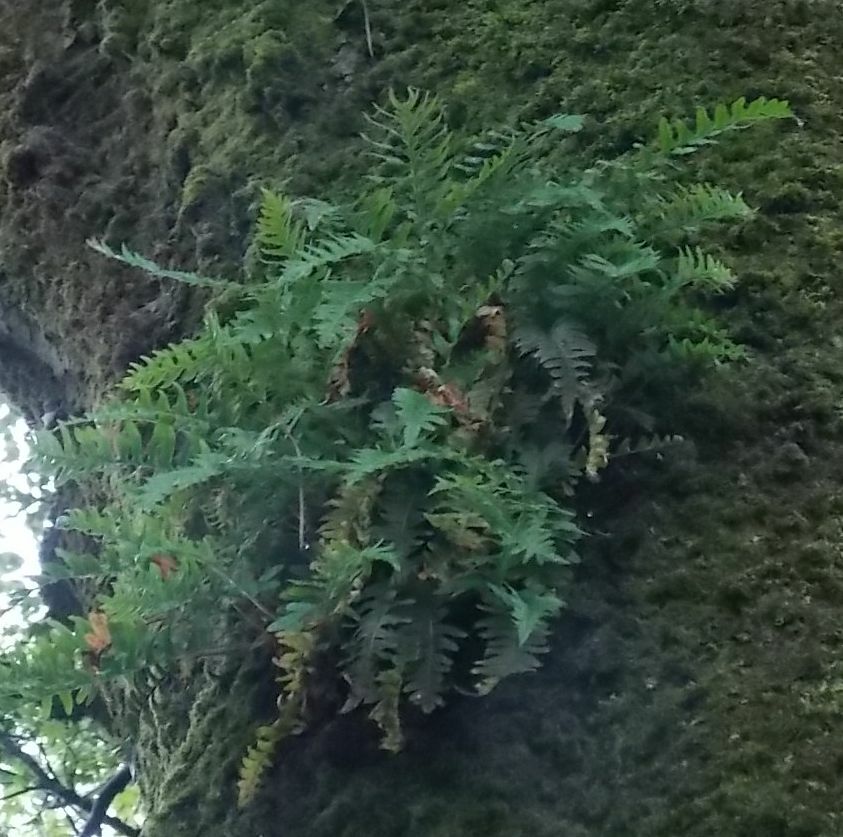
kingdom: Plantae
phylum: Tracheophyta
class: Polypodiopsida
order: Polypodiales
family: Polypodiaceae
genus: Polypodium
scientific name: Polypodium
